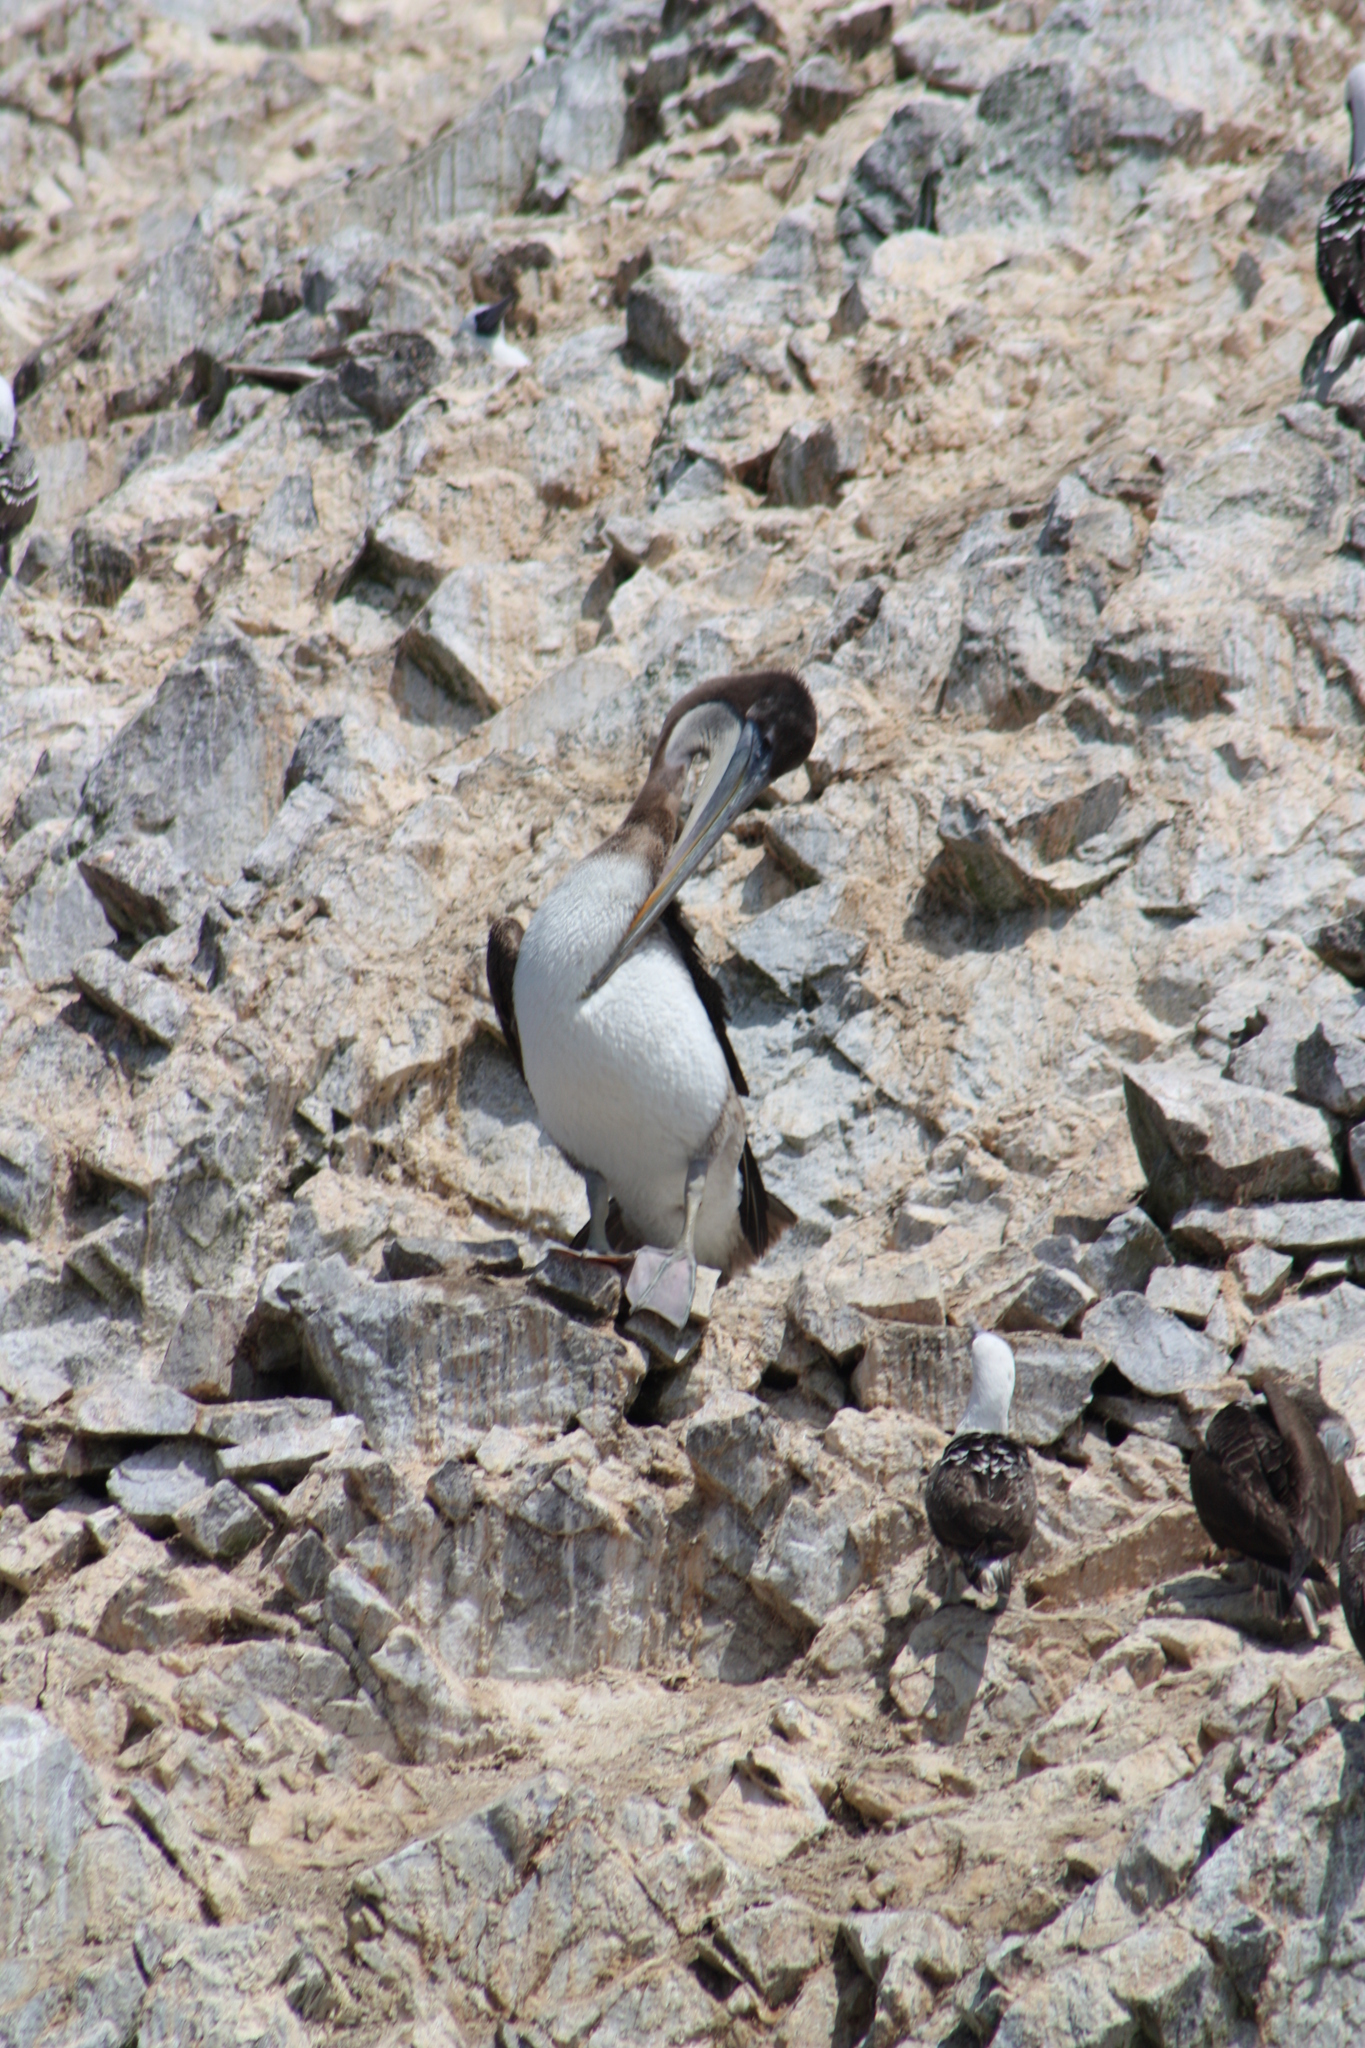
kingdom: Animalia
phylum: Chordata
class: Aves
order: Pelecaniformes
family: Pelecanidae
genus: Pelecanus
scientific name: Pelecanus thagus
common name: Peruvian pelican
